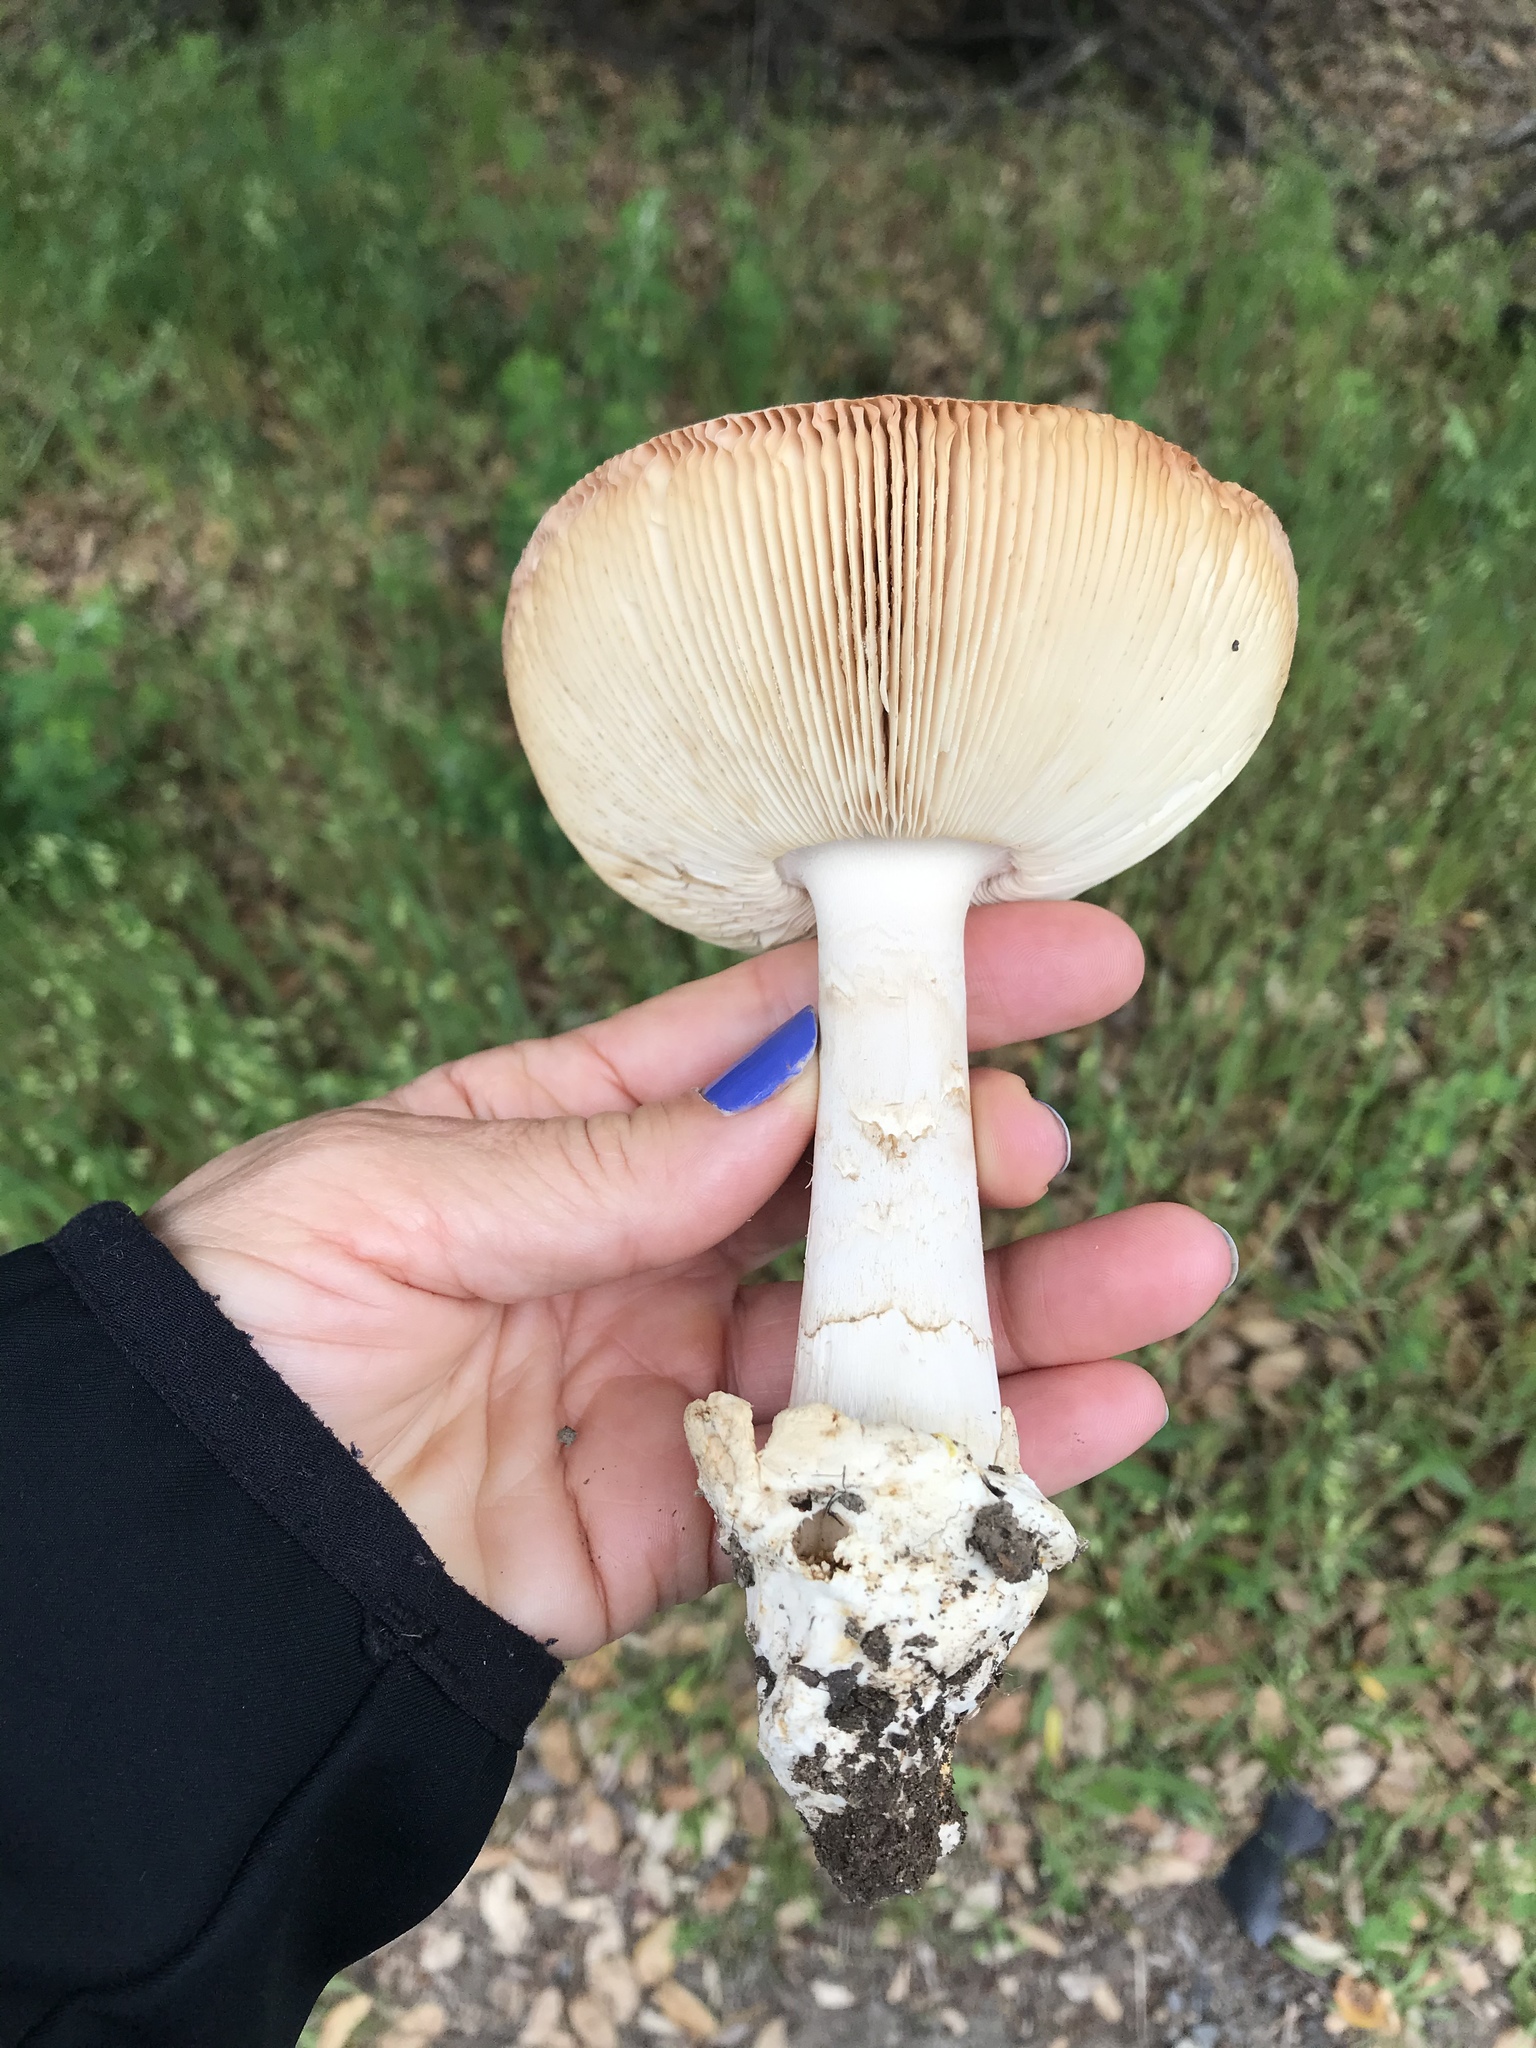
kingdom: Fungi
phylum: Basidiomycota
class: Agaricomycetes
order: Agaricales
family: Amanitaceae
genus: Amanita
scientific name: Amanita velosa
